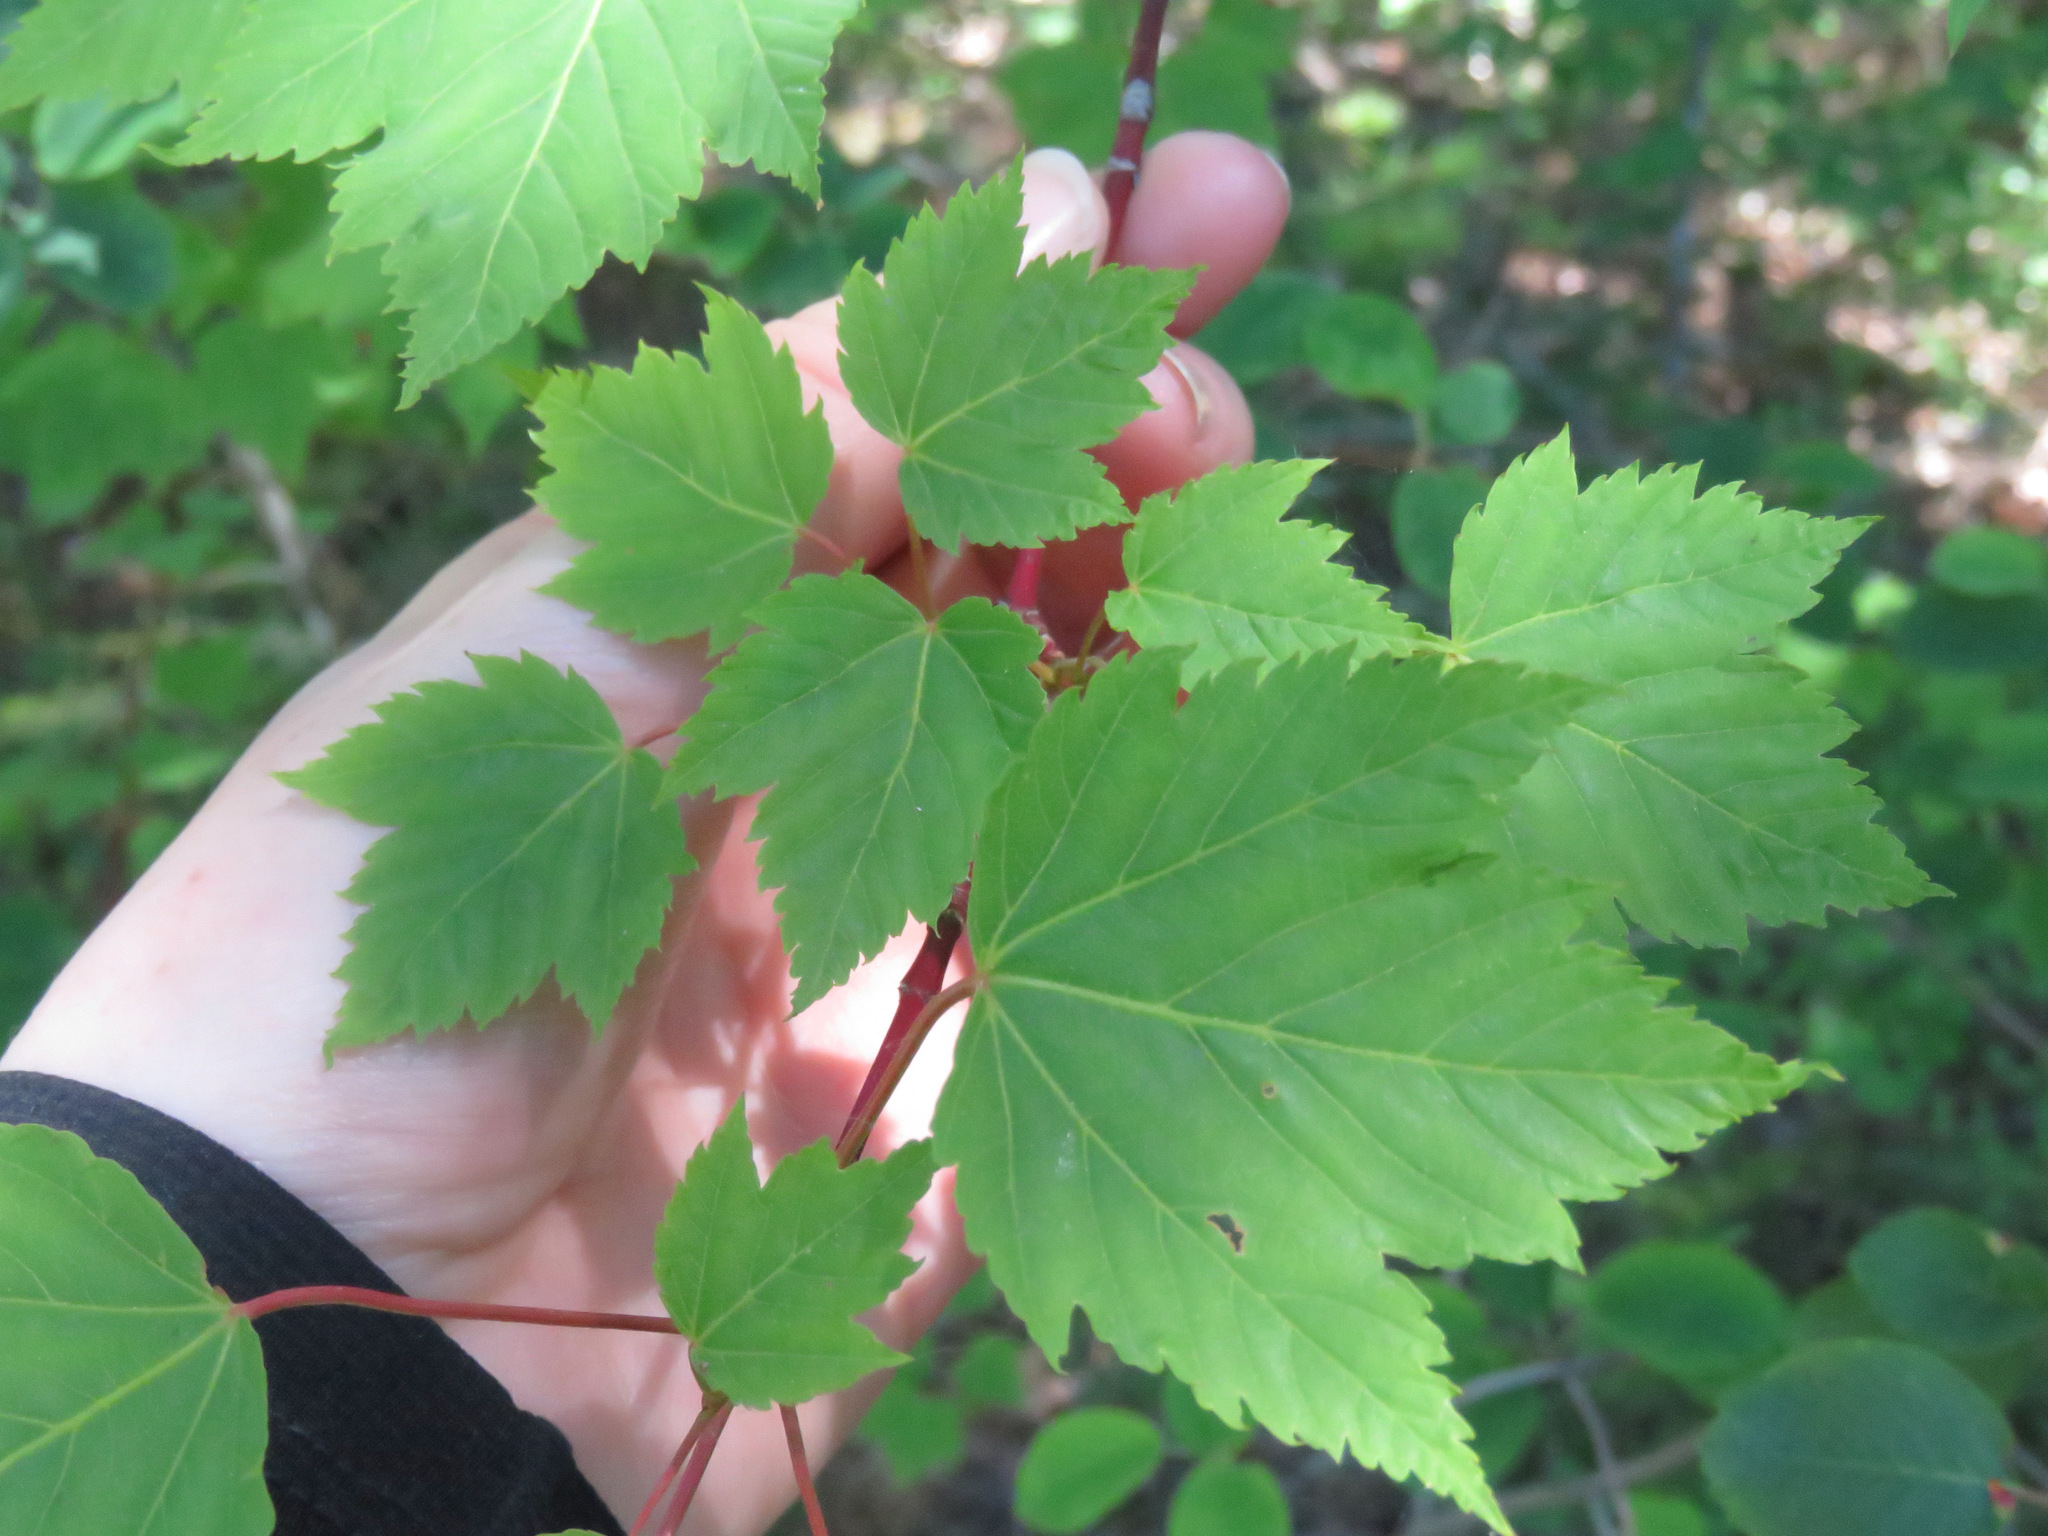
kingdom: Plantae
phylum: Tracheophyta
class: Magnoliopsida
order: Sapindales
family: Sapindaceae
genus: Acer
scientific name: Acer glabrum
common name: Rocky mountain maple
